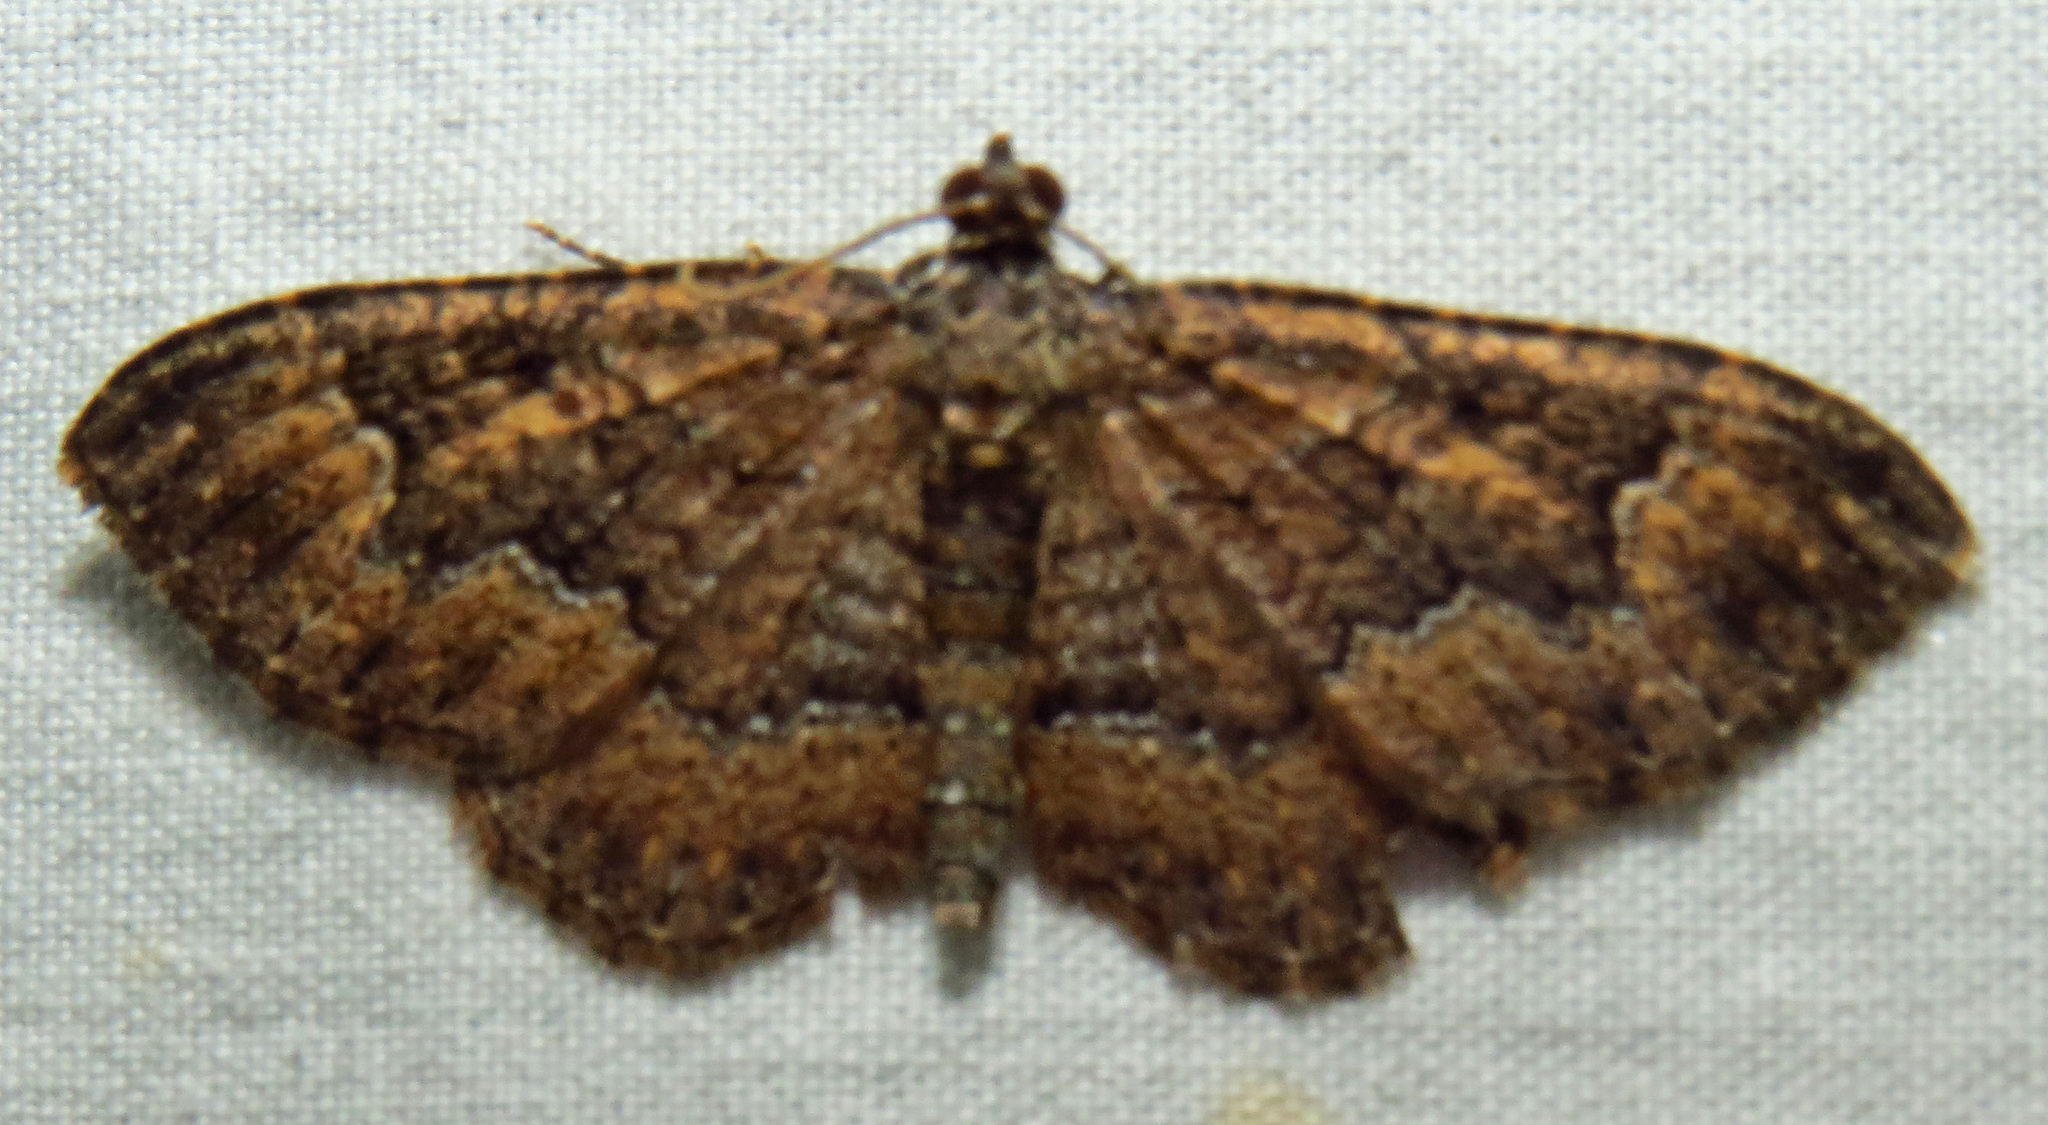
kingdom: Animalia
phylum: Arthropoda
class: Insecta
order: Lepidoptera
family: Geometridae
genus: Disclisioprocta
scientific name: Disclisioprocta stellata
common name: Somber carpet
